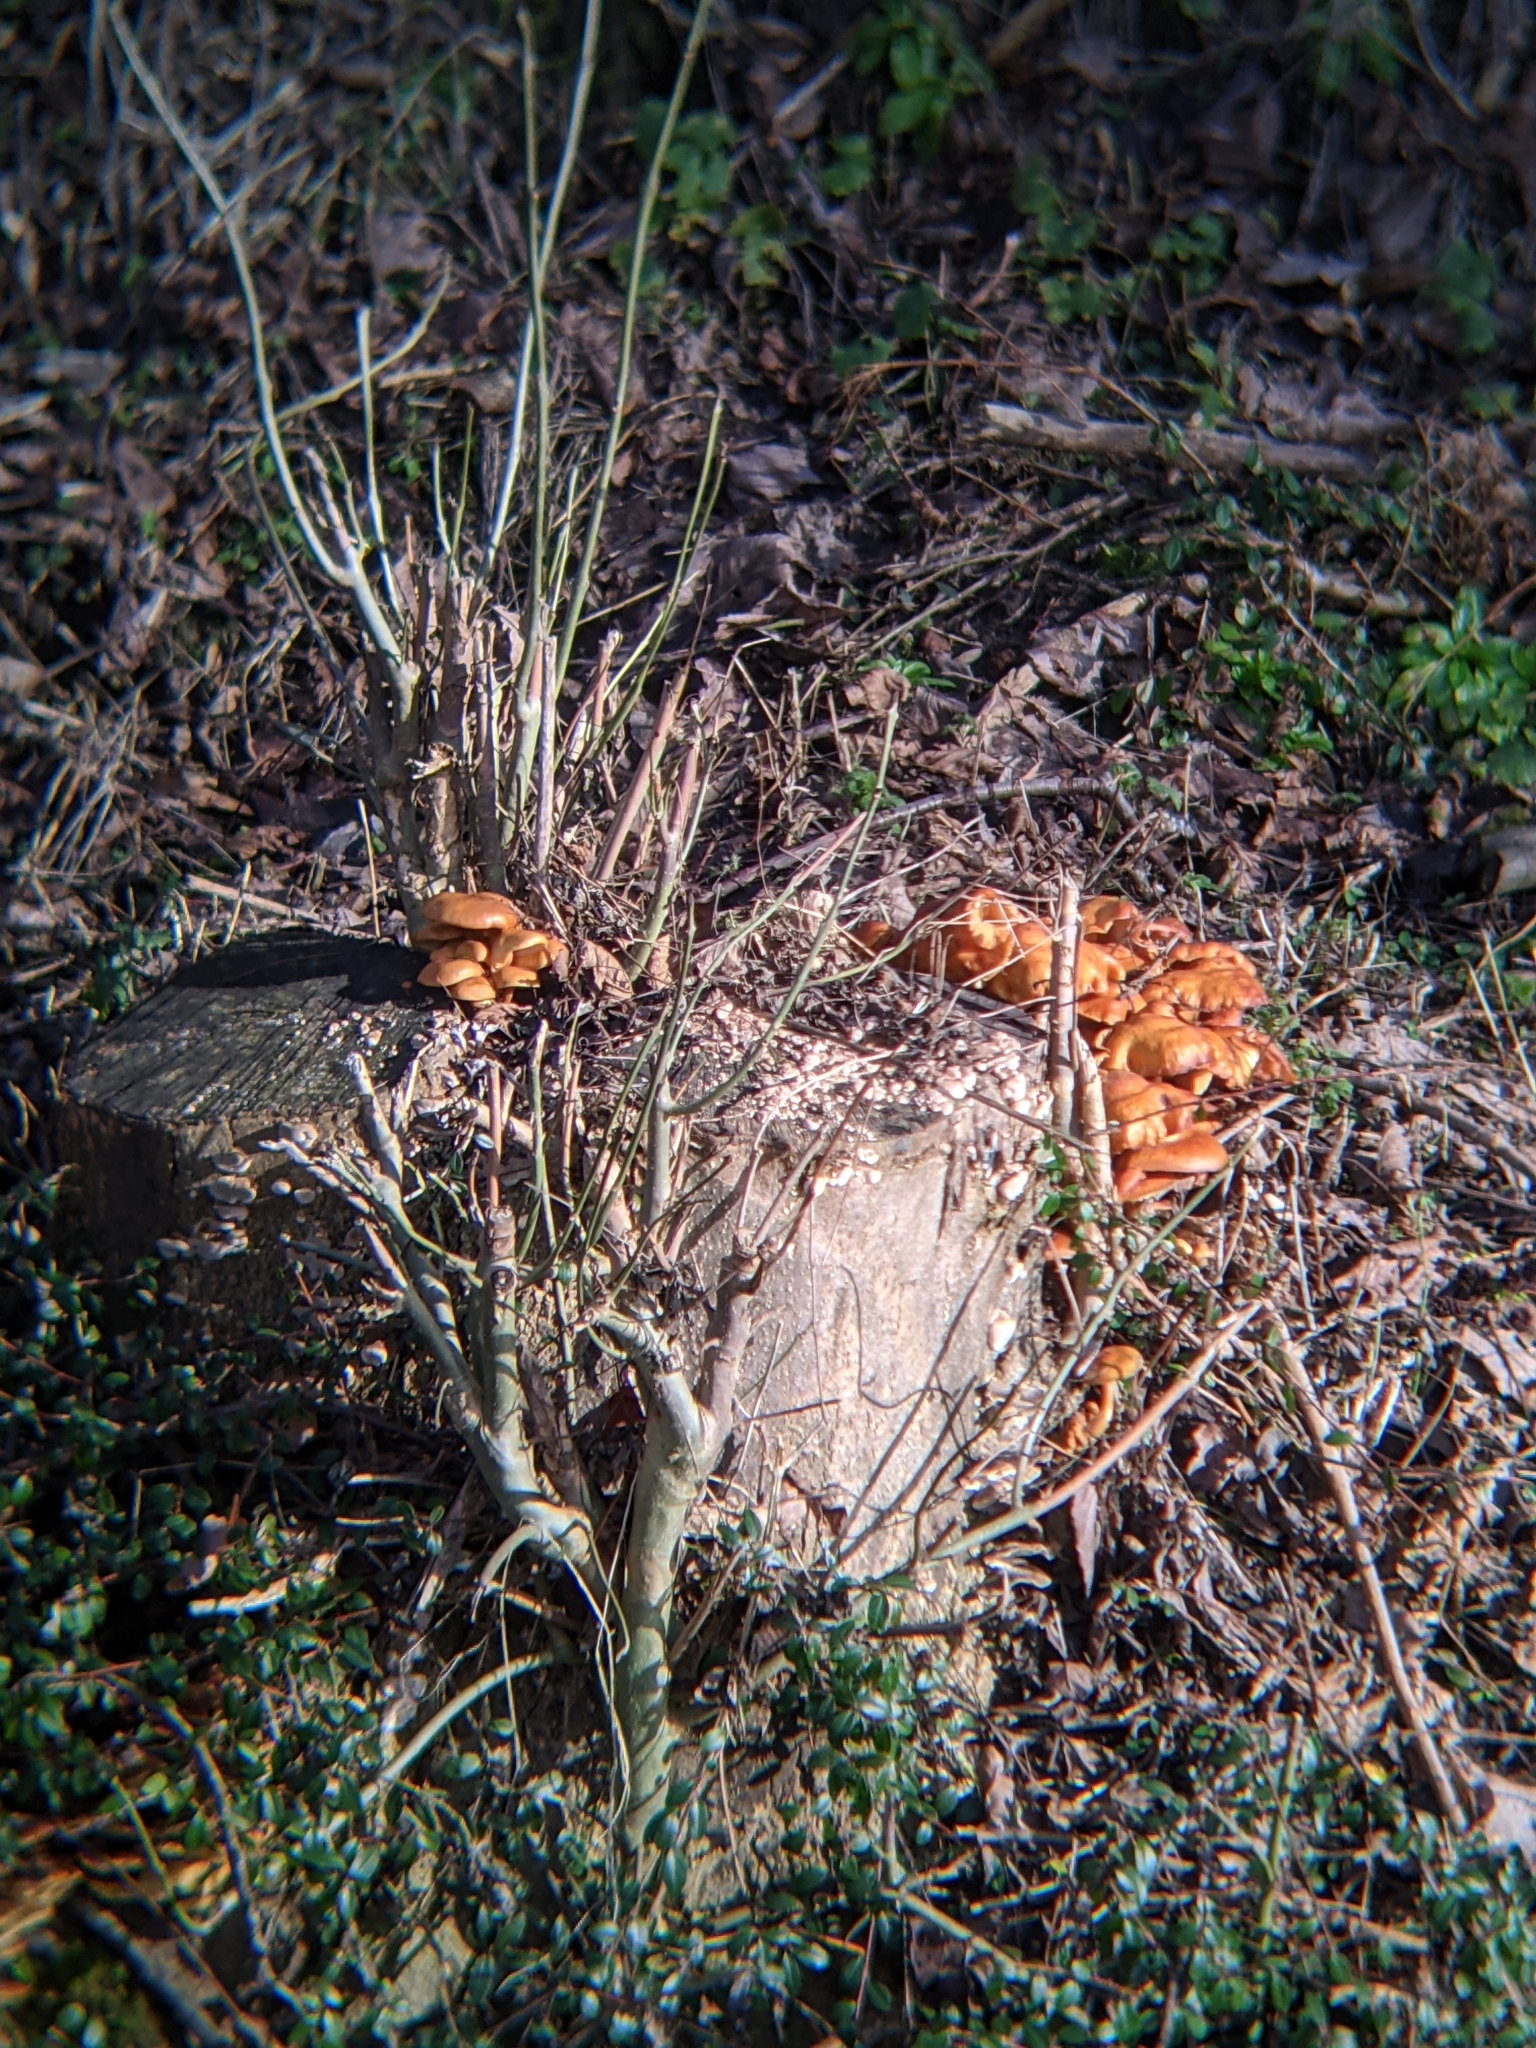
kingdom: Fungi
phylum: Basidiomycota
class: Agaricomycetes
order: Agaricales
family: Physalacriaceae
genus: Flammulina
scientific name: Flammulina
